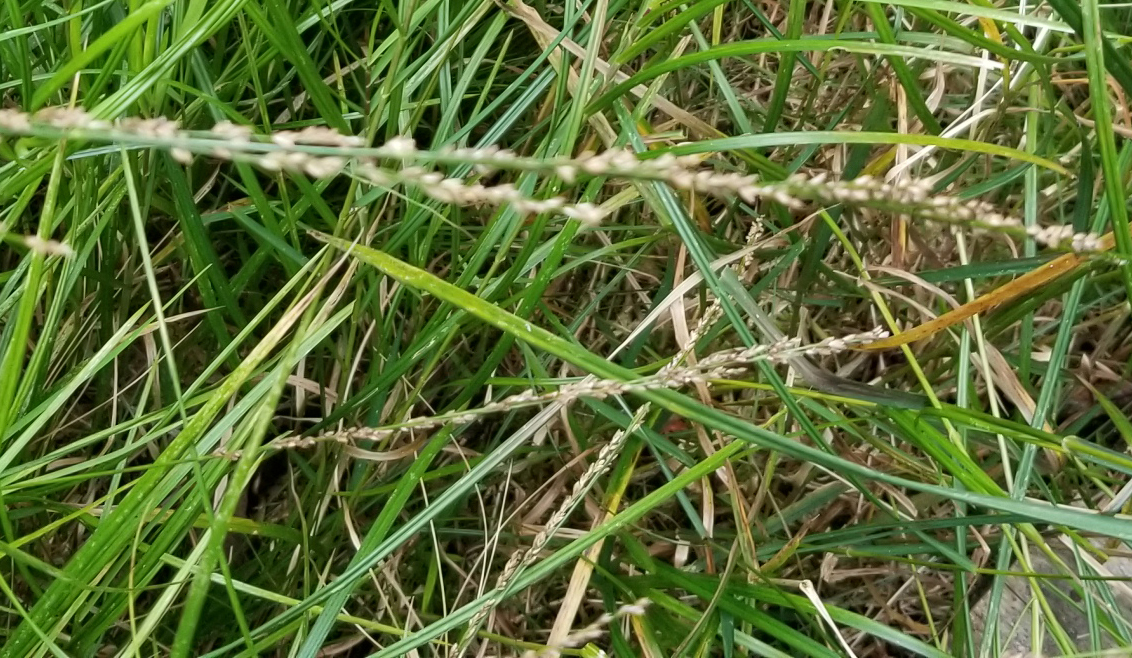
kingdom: Plantae
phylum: Tracheophyta
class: Liliopsida
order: Poales
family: Poaceae
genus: Glyceria
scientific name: Glyceria melicaria
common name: Long mannagrass
